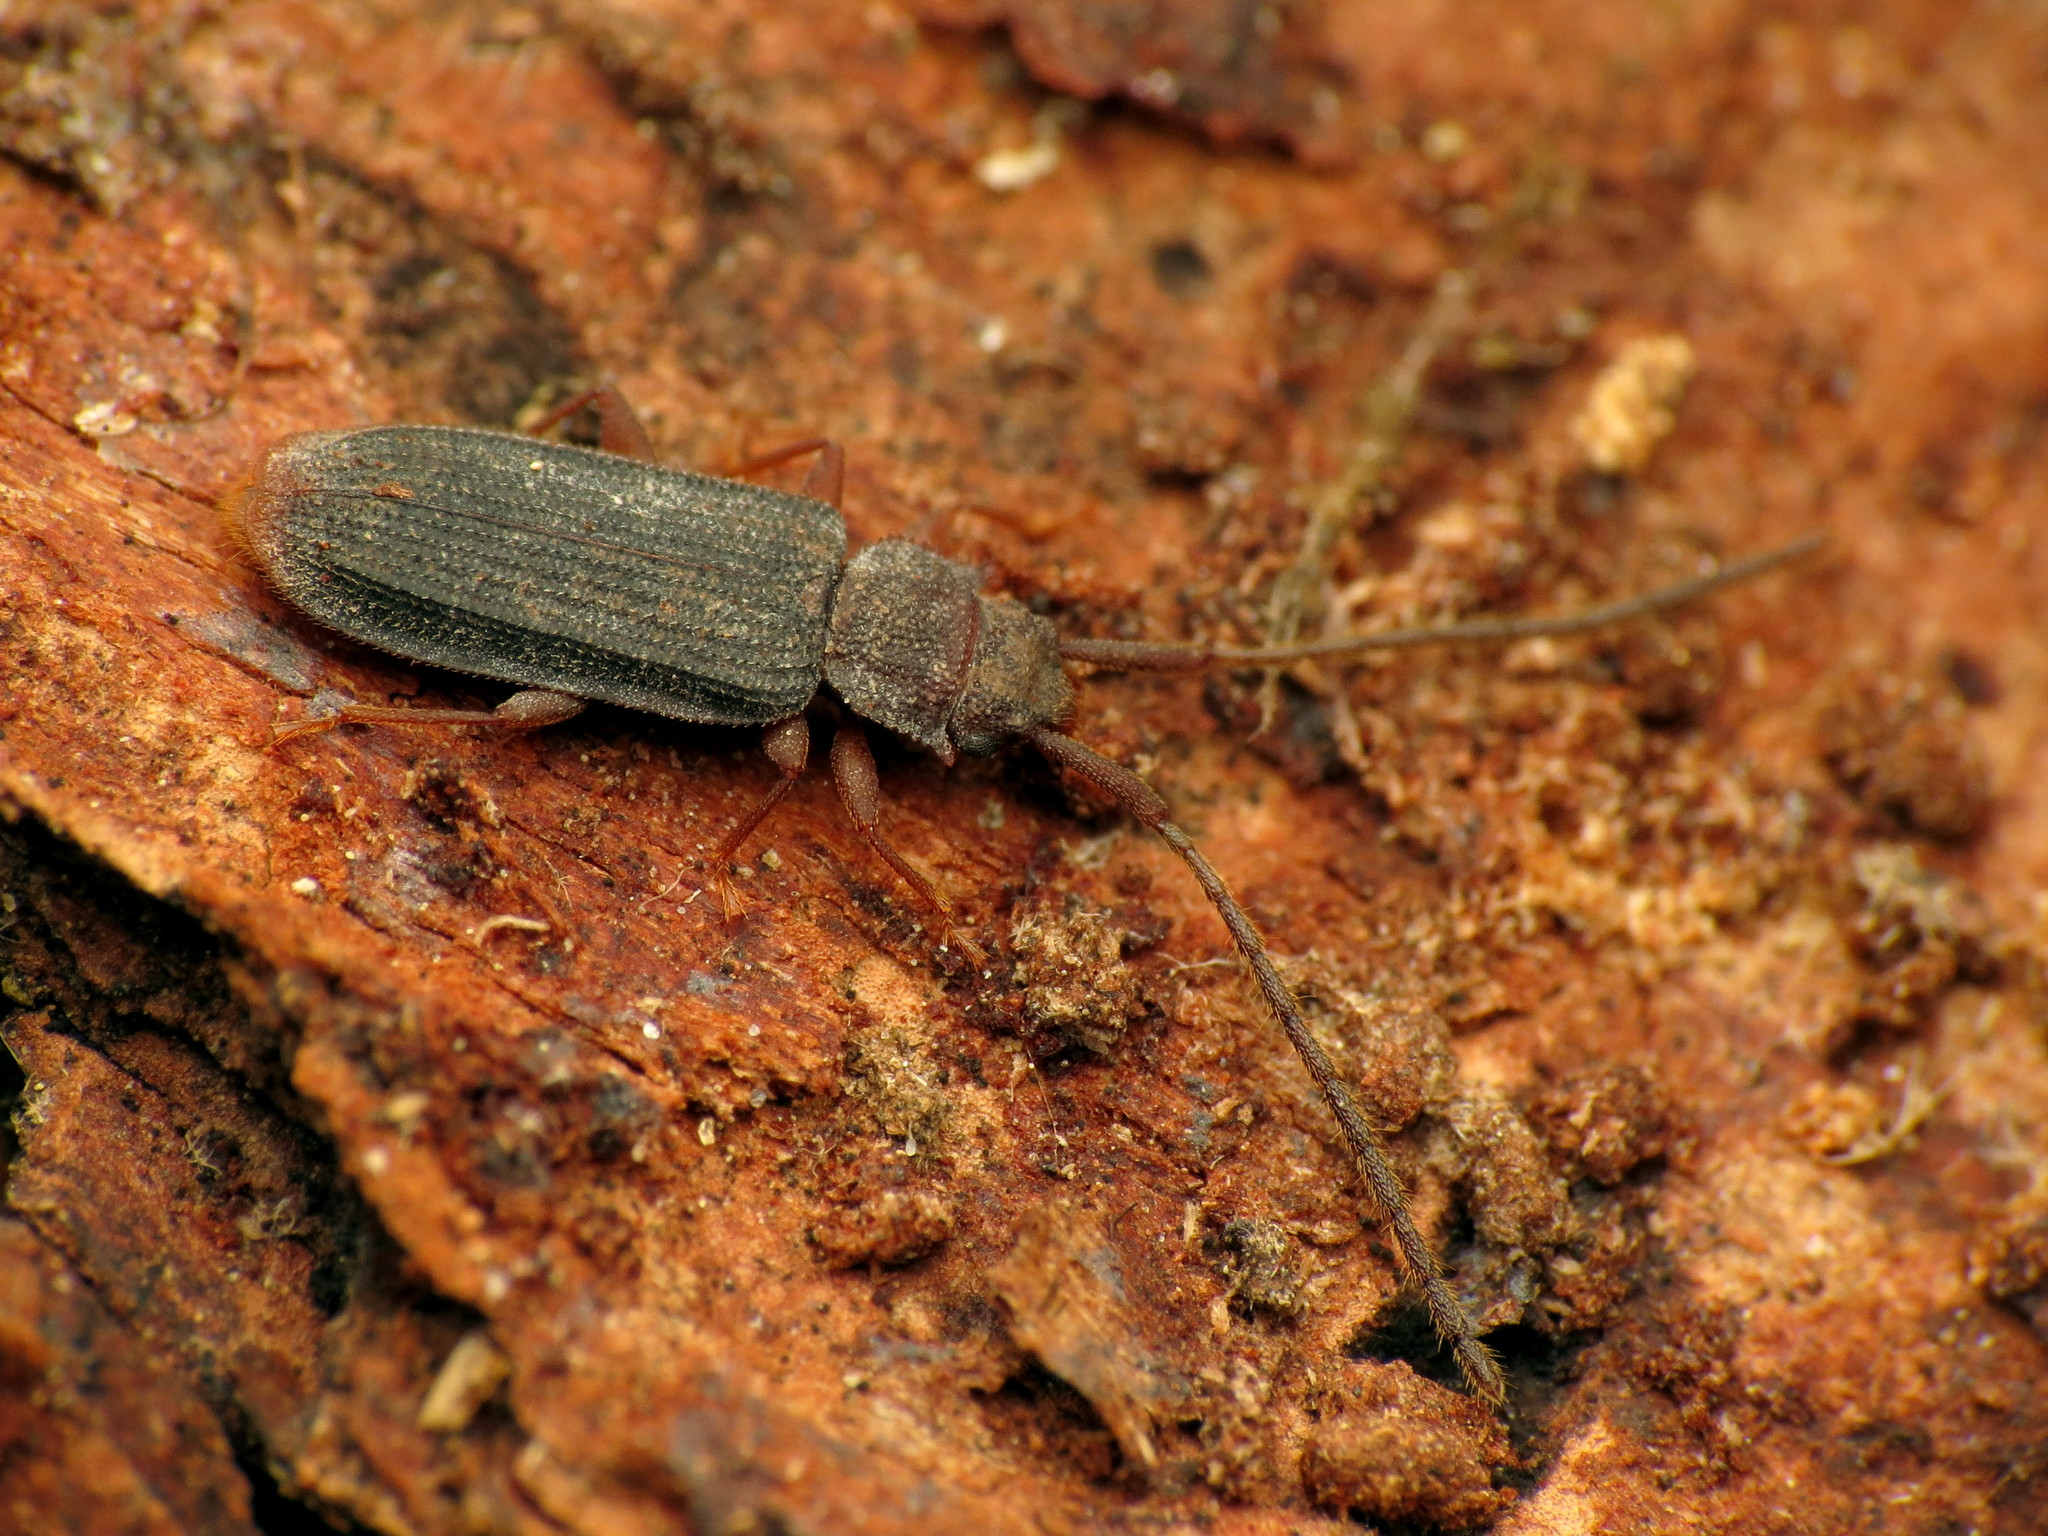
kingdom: Animalia
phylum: Arthropoda
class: Insecta
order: Coleoptera
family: Silvanidae
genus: Uleiota
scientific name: Uleiota dubia
